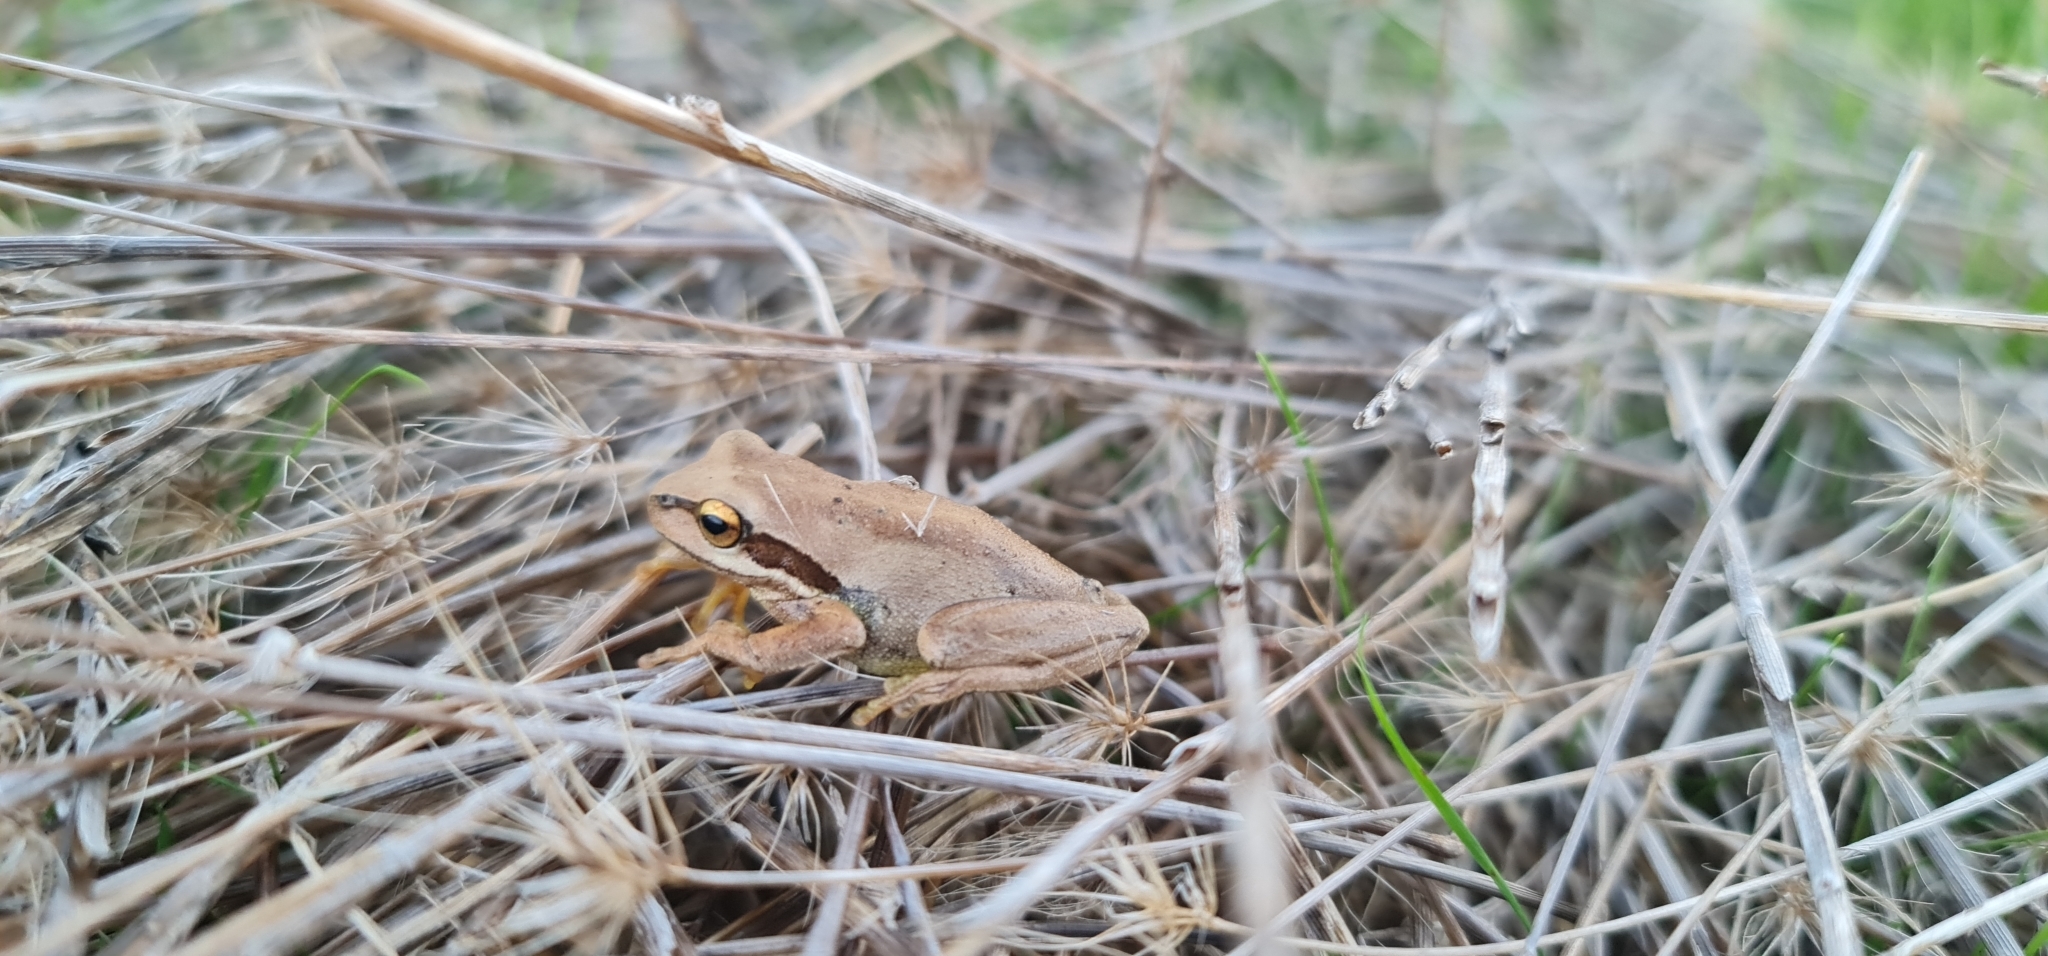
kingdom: Animalia
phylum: Chordata
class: Amphibia
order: Anura
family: Pelodryadidae
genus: Litoria
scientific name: Litoria
